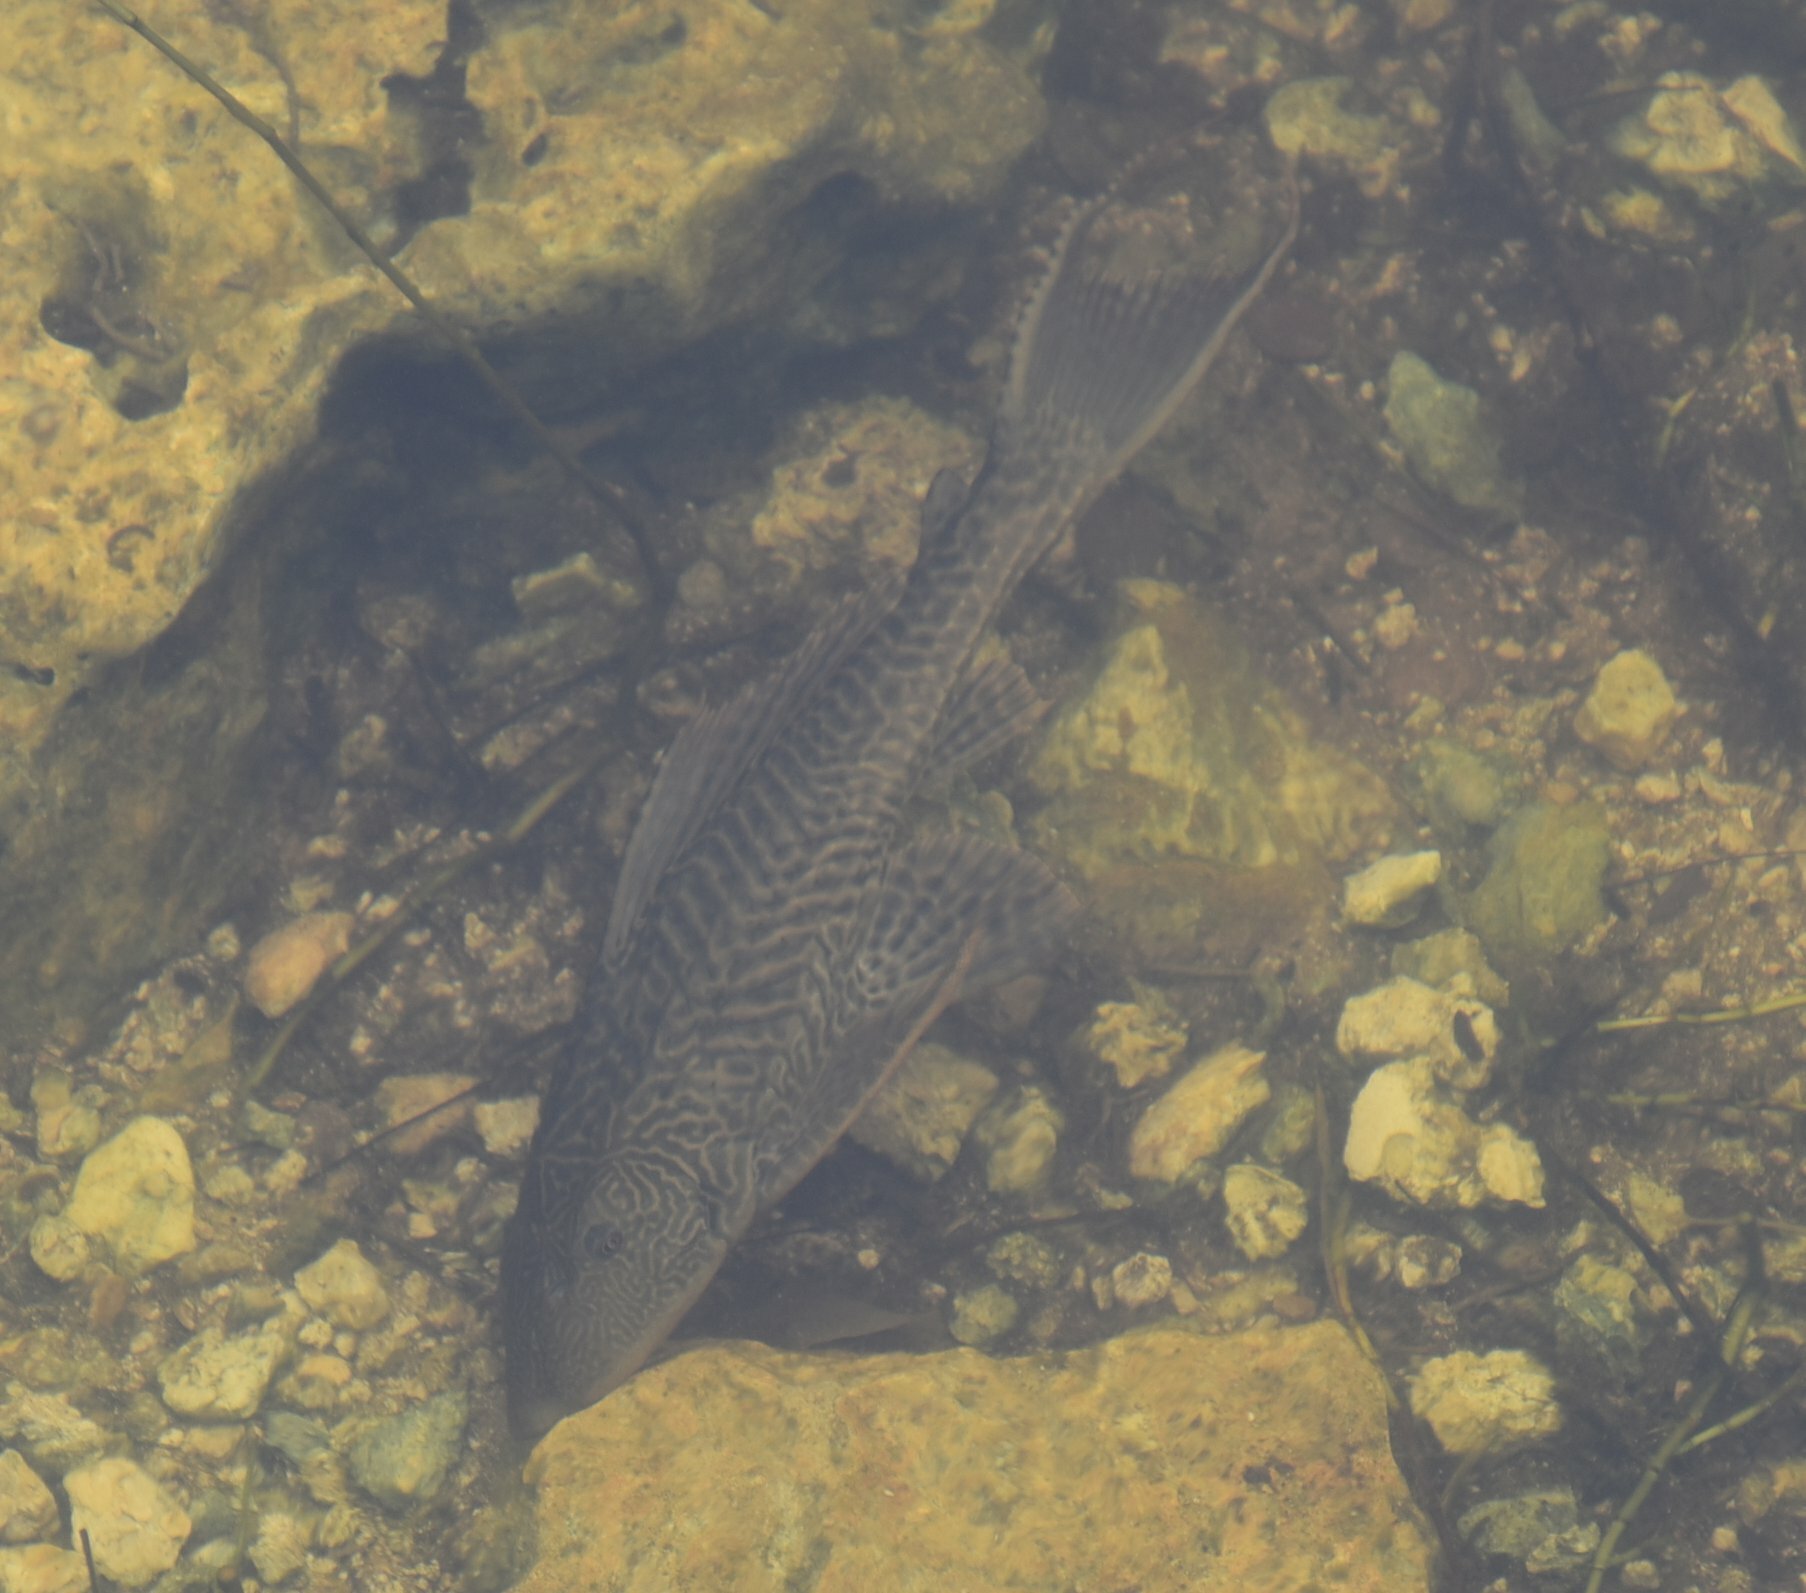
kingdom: Animalia
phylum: Chordata
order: Siluriformes
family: Loricariidae
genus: Pterygoplichthys
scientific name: Pterygoplichthys
